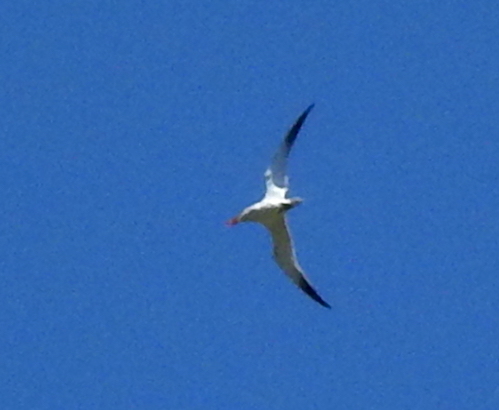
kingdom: Animalia
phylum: Chordata
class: Aves
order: Charadriiformes
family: Laridae
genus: Hydroprogne
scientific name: Hydroprogne caspia
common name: Caspian tern
